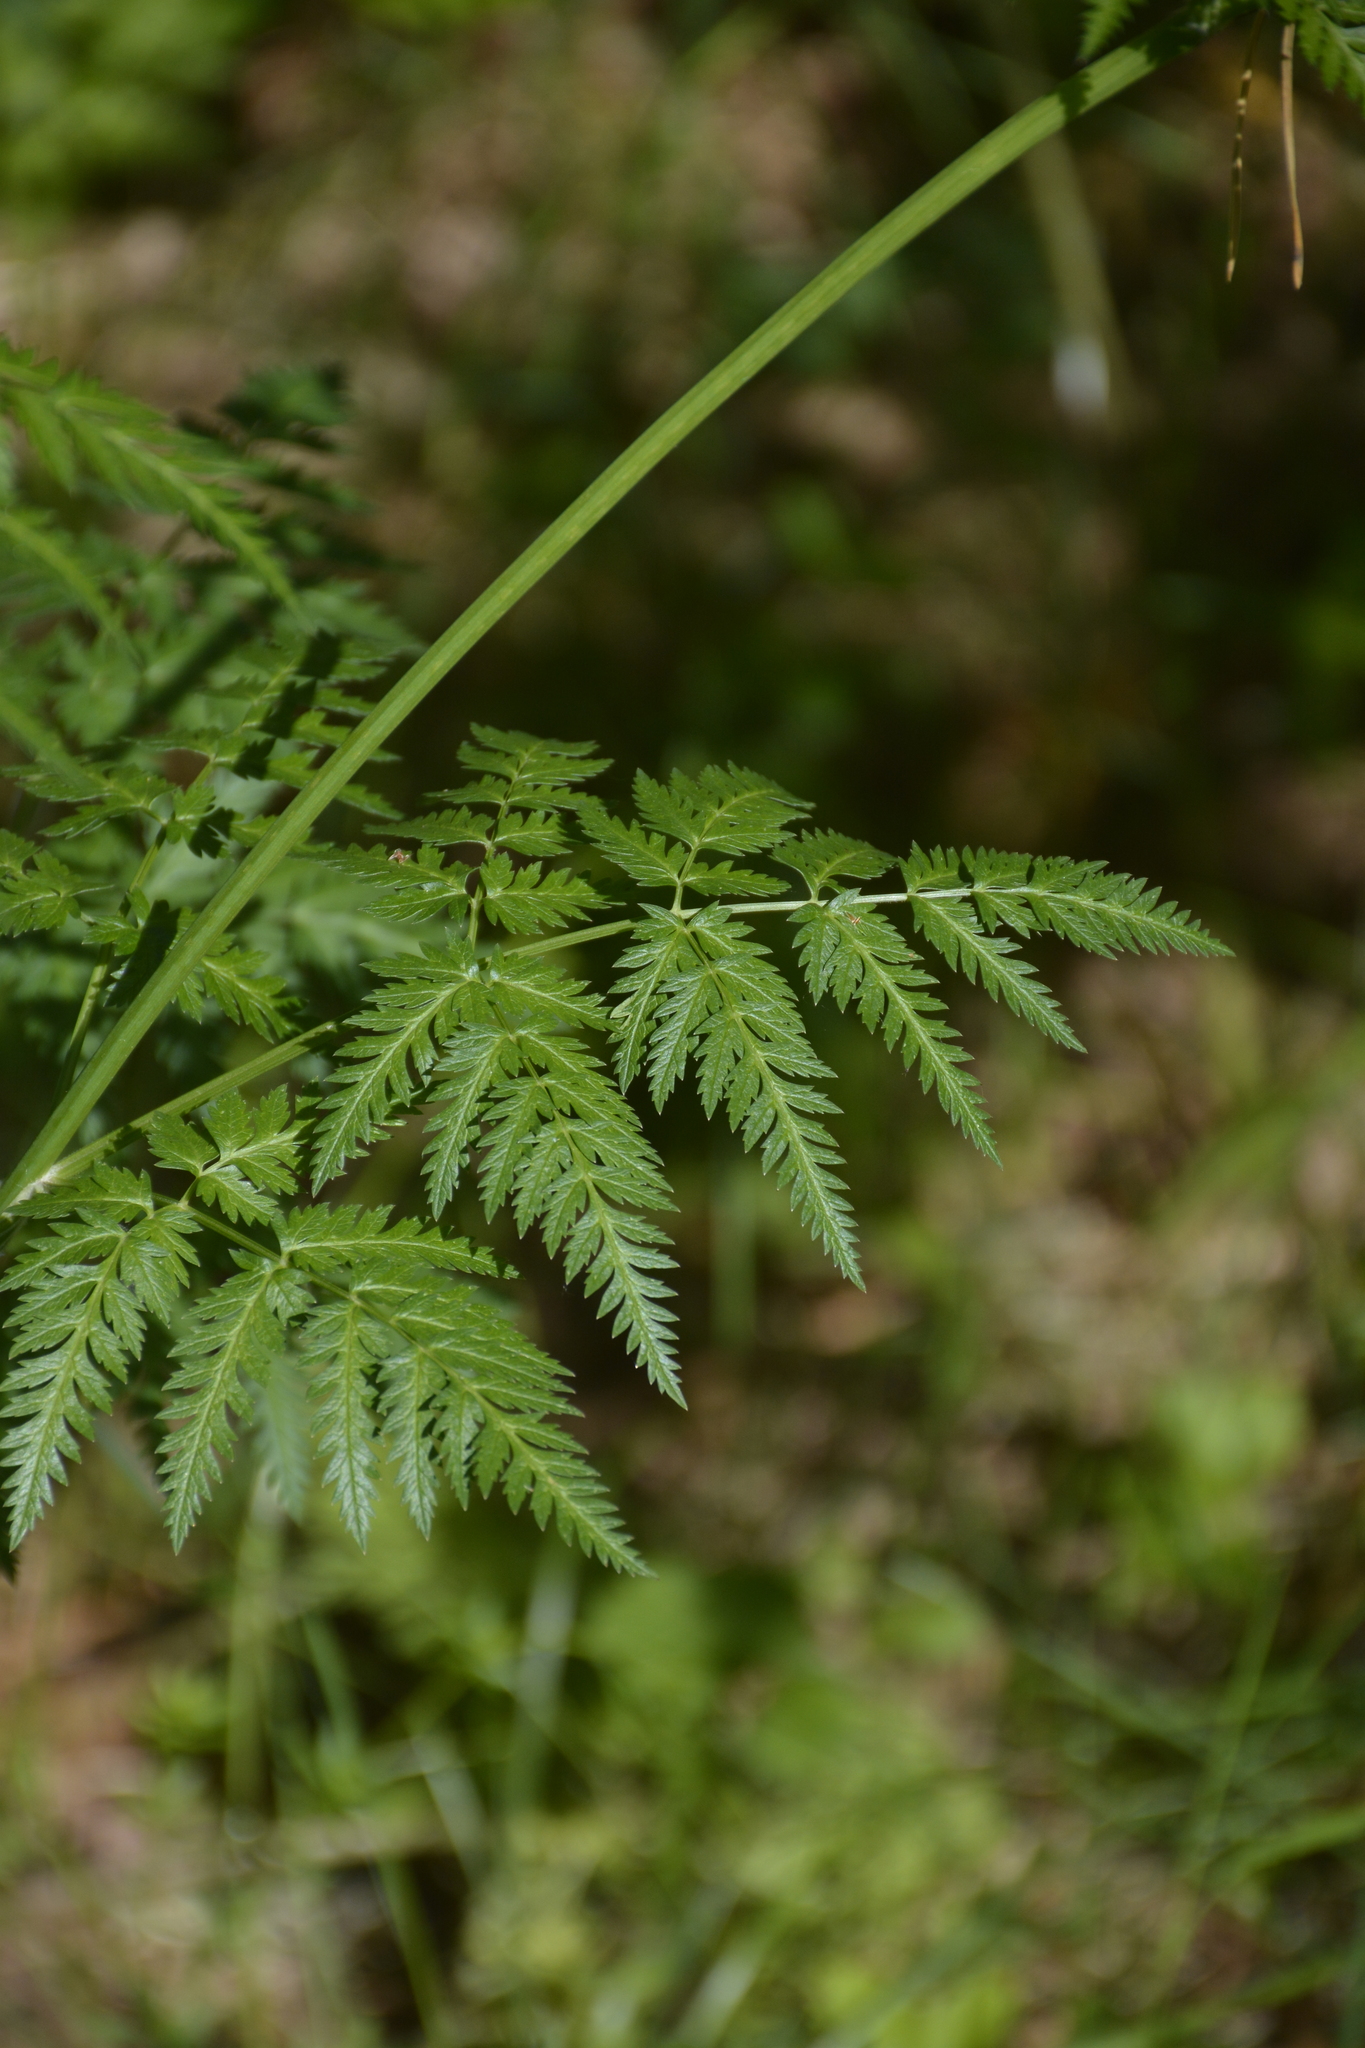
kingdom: Plantae
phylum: Tracheophyta
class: Magnoliopsida
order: Apiales
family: Apiaceae
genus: Anthriscus
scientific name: Anthriscus sylvestris
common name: Cow parsley
